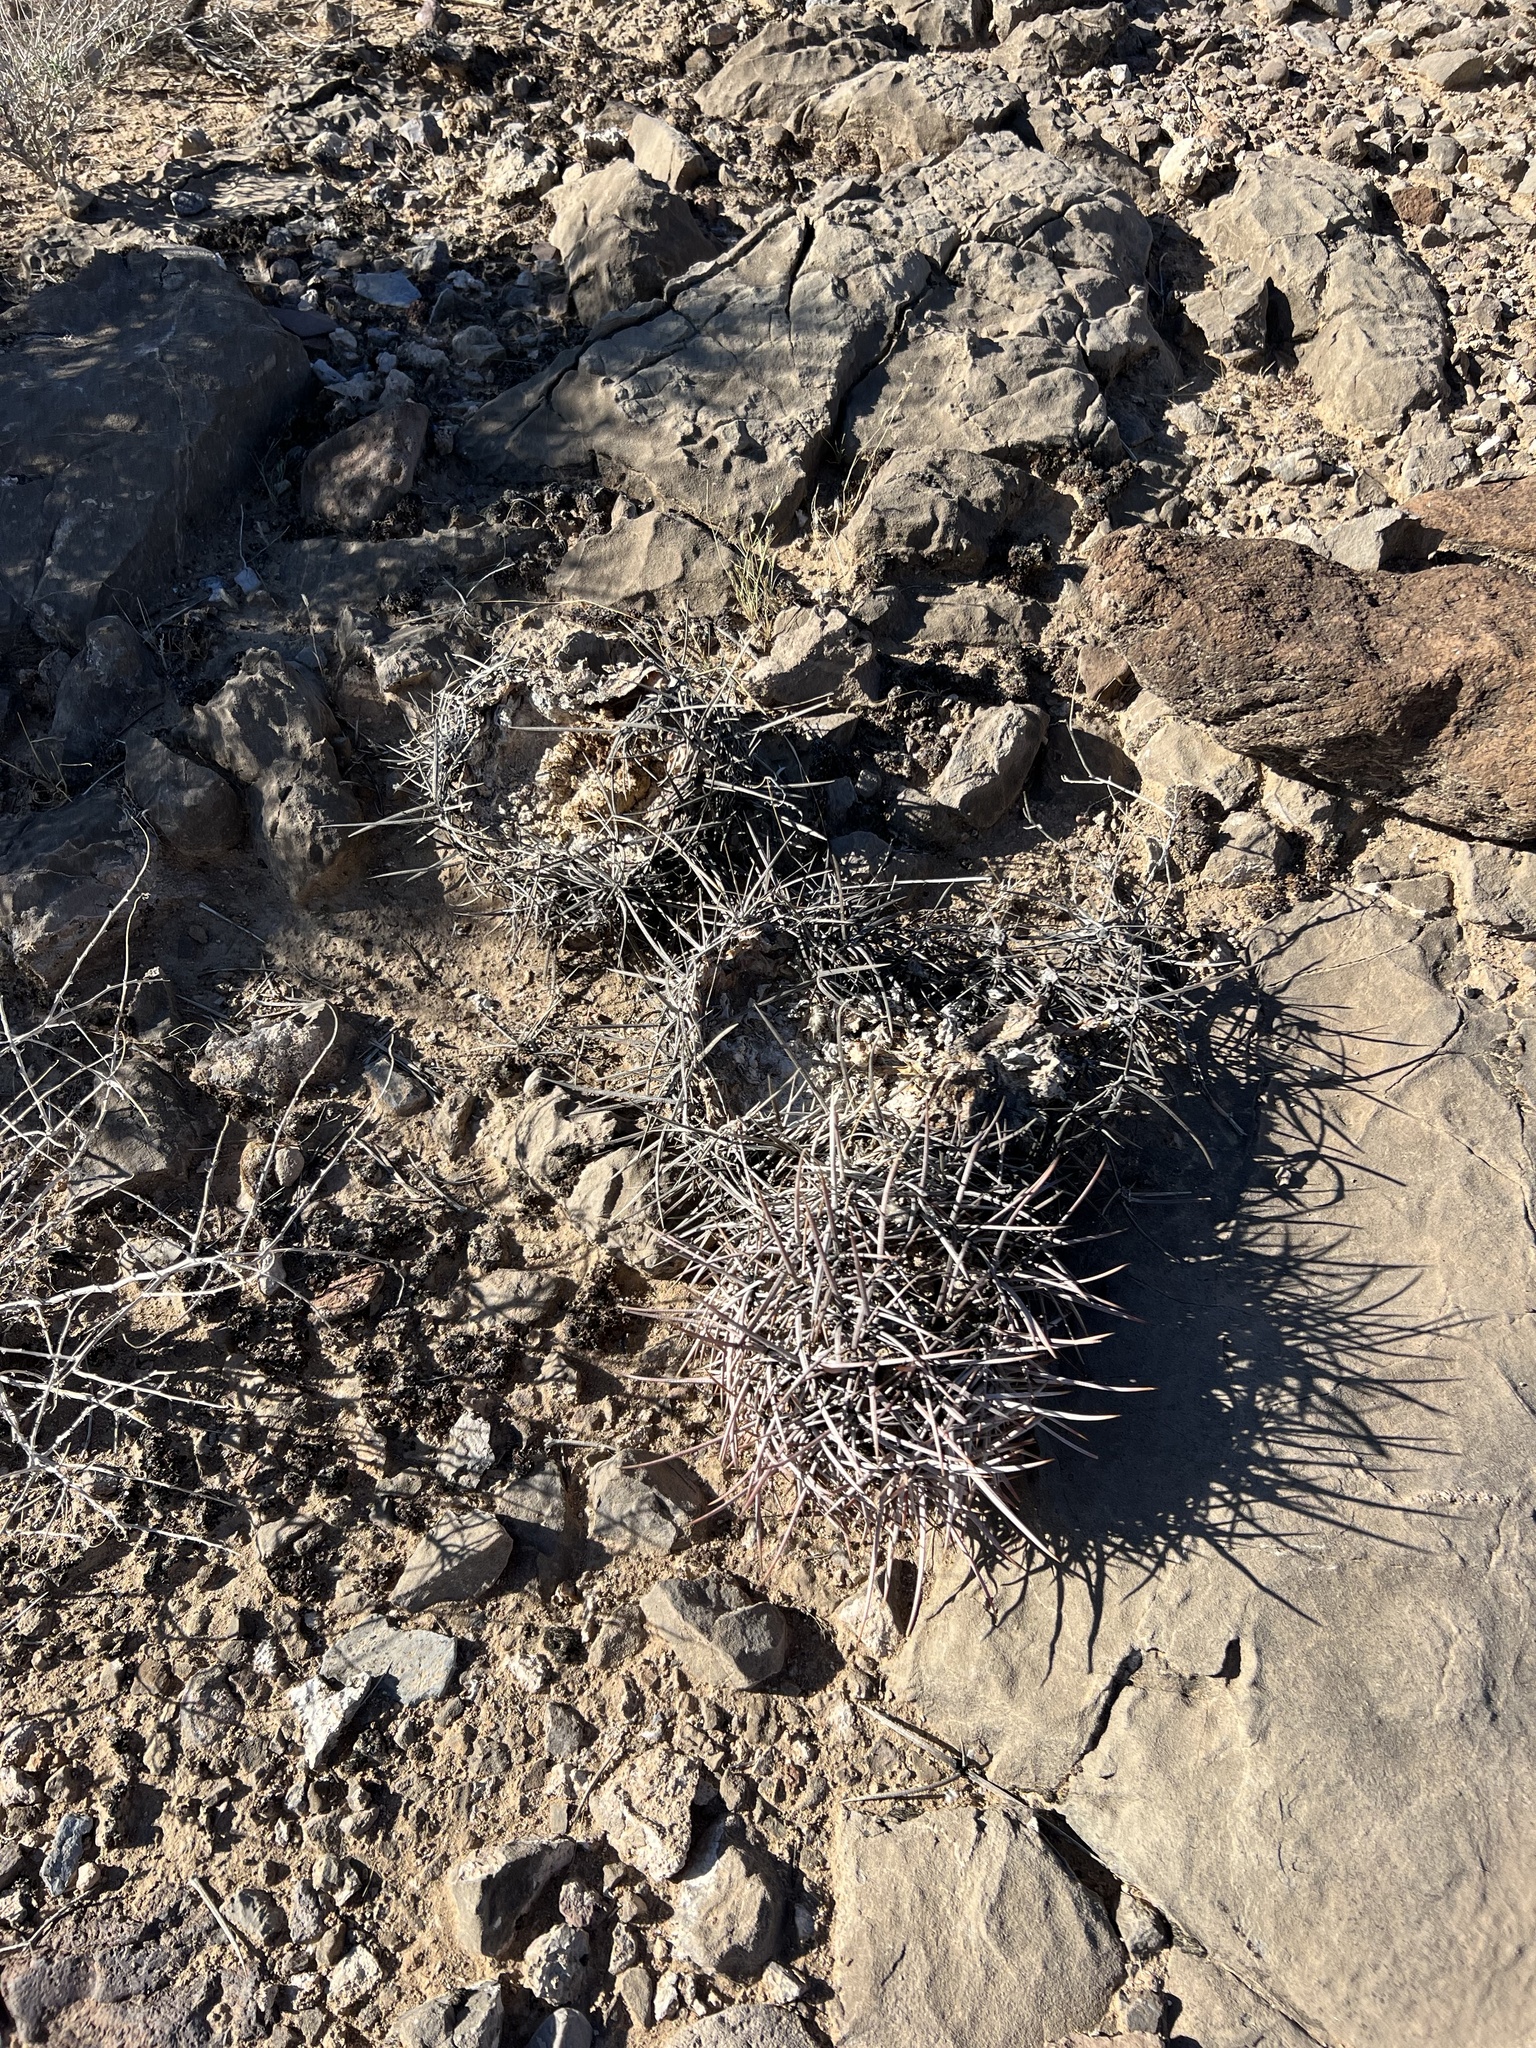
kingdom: Plantae
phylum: Tracheophyta
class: Magnoliopsida
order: Caryophyllales
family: Cactaceae
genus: Echinocactus
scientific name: Echinocactus polycephalus
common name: Cottontop cactus
